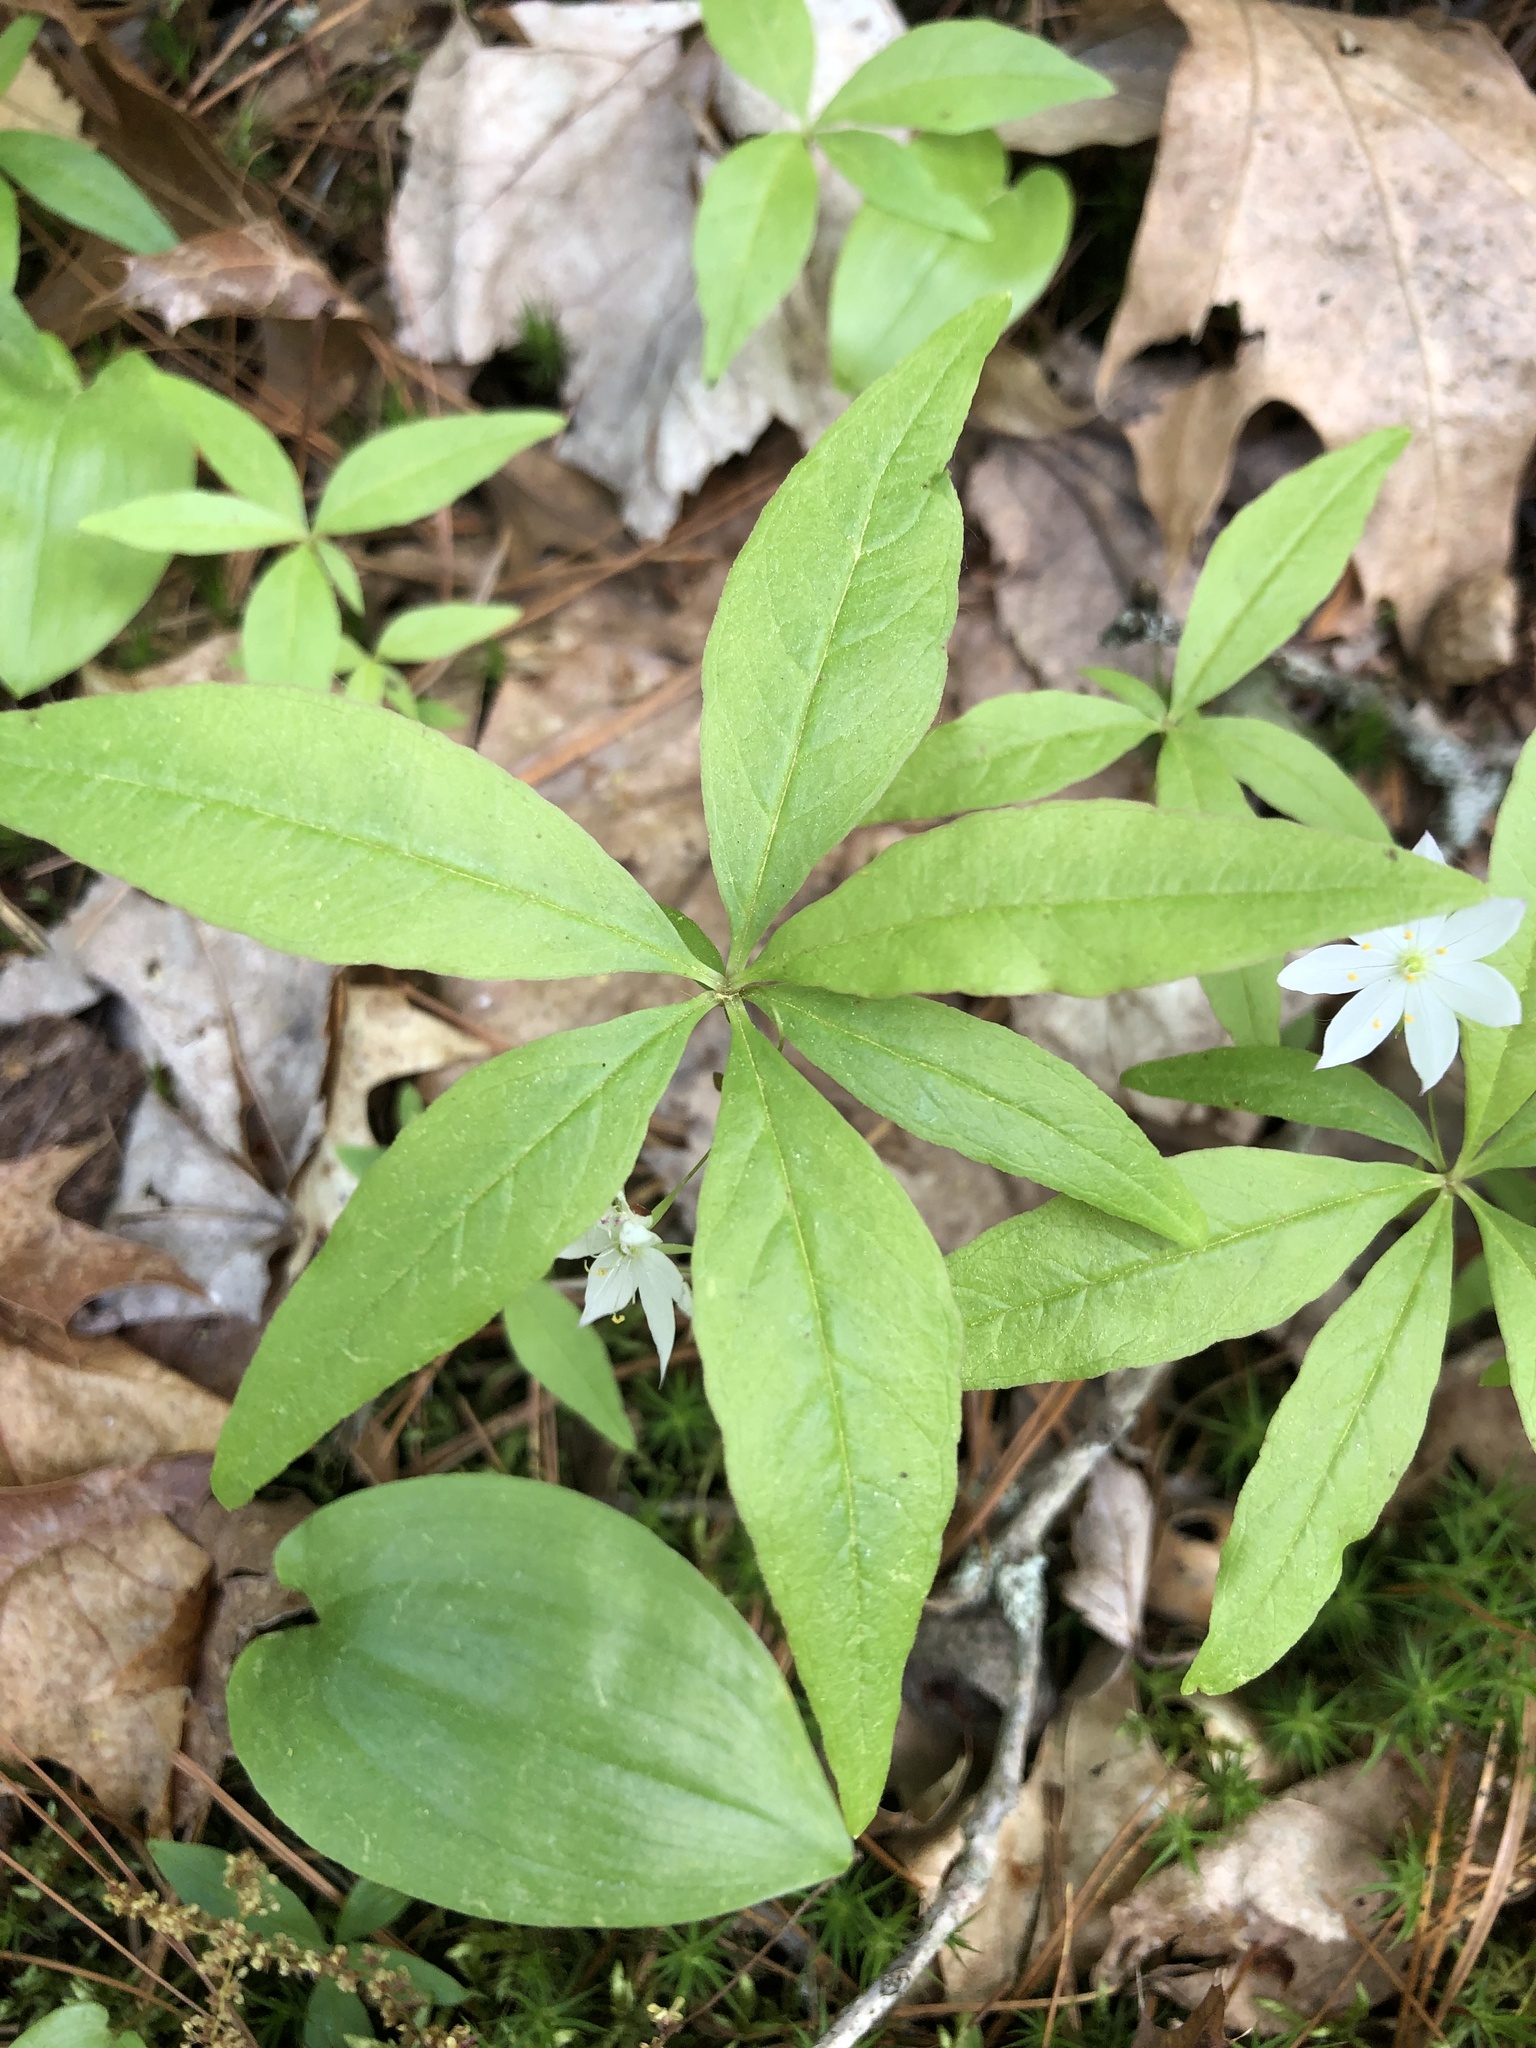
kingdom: Plantae
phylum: Tracheophyta
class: Magnoliopsida
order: Ericales
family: Primulaceae
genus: Lysimachia
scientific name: Lysimachia borealis
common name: American starflower
